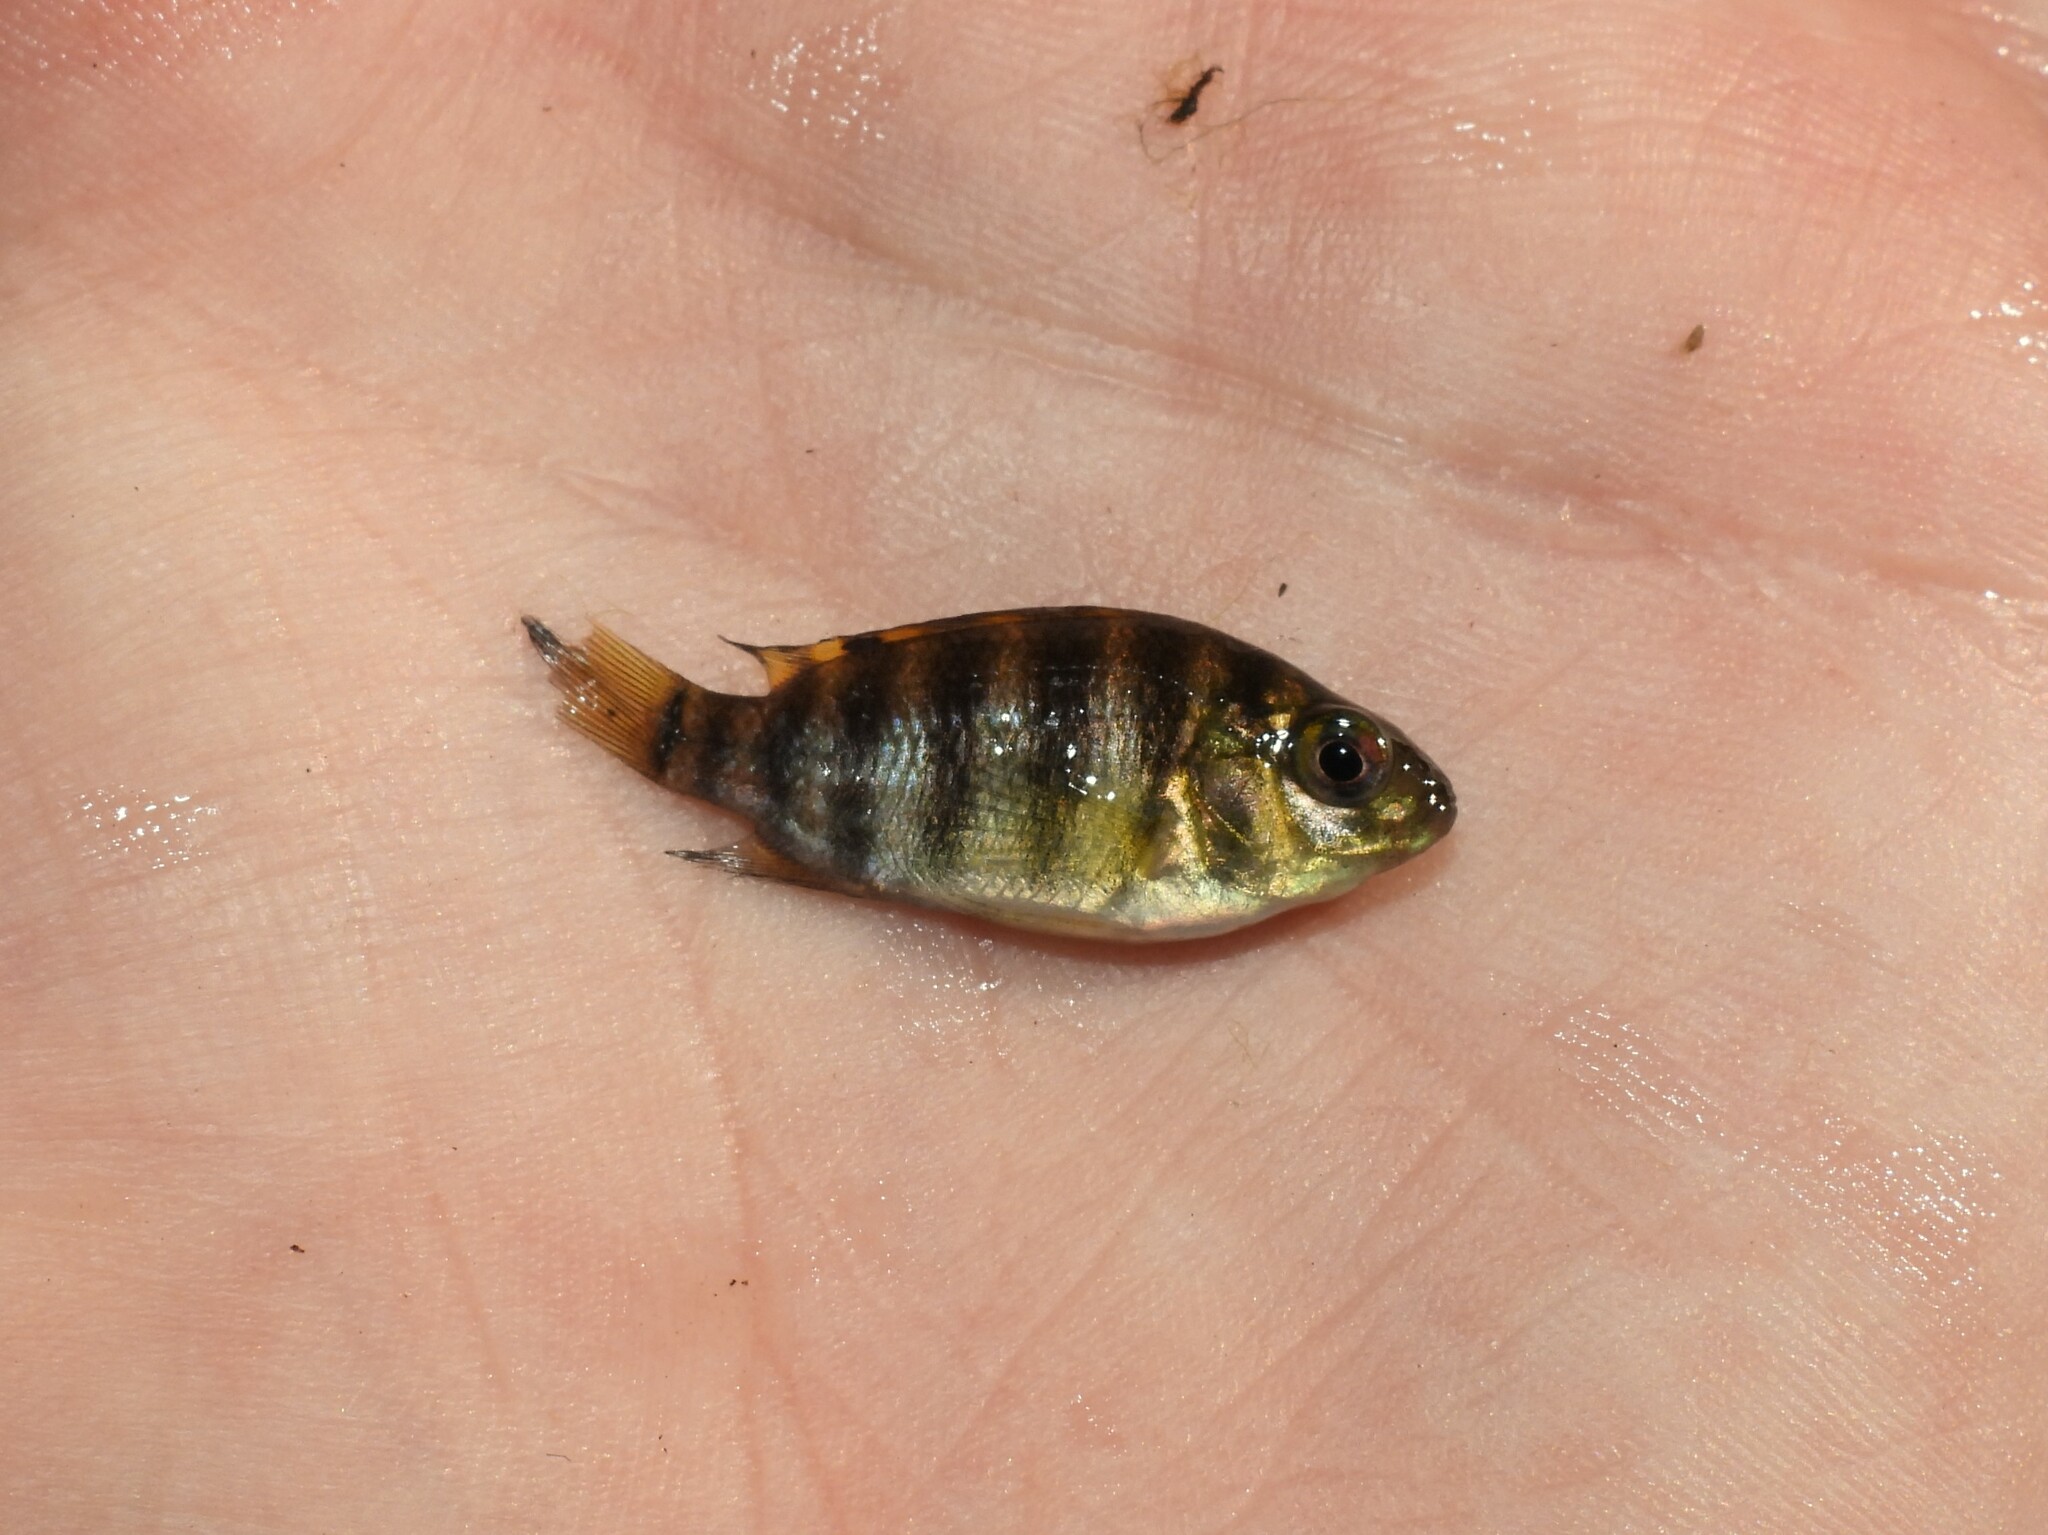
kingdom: Animalia
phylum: Chordata
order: Perciformes
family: Cichlidae
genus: Pelmatolapia
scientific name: Pelmatolapia mariae
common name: Spotted tilapia
